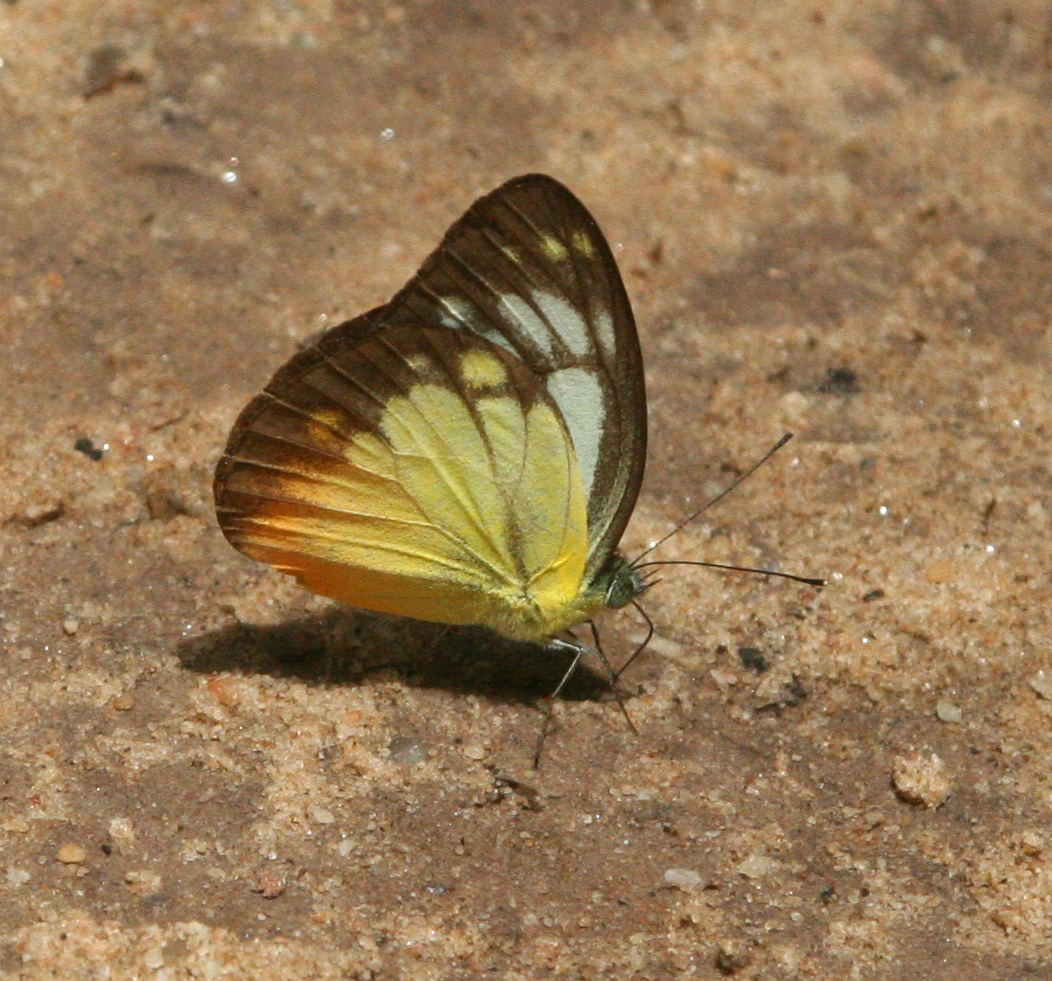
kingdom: Animalia
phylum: Arthropoda
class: Insecta
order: Lepidoptera
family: Pieridae
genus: Cepora
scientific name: Cepora iudith
